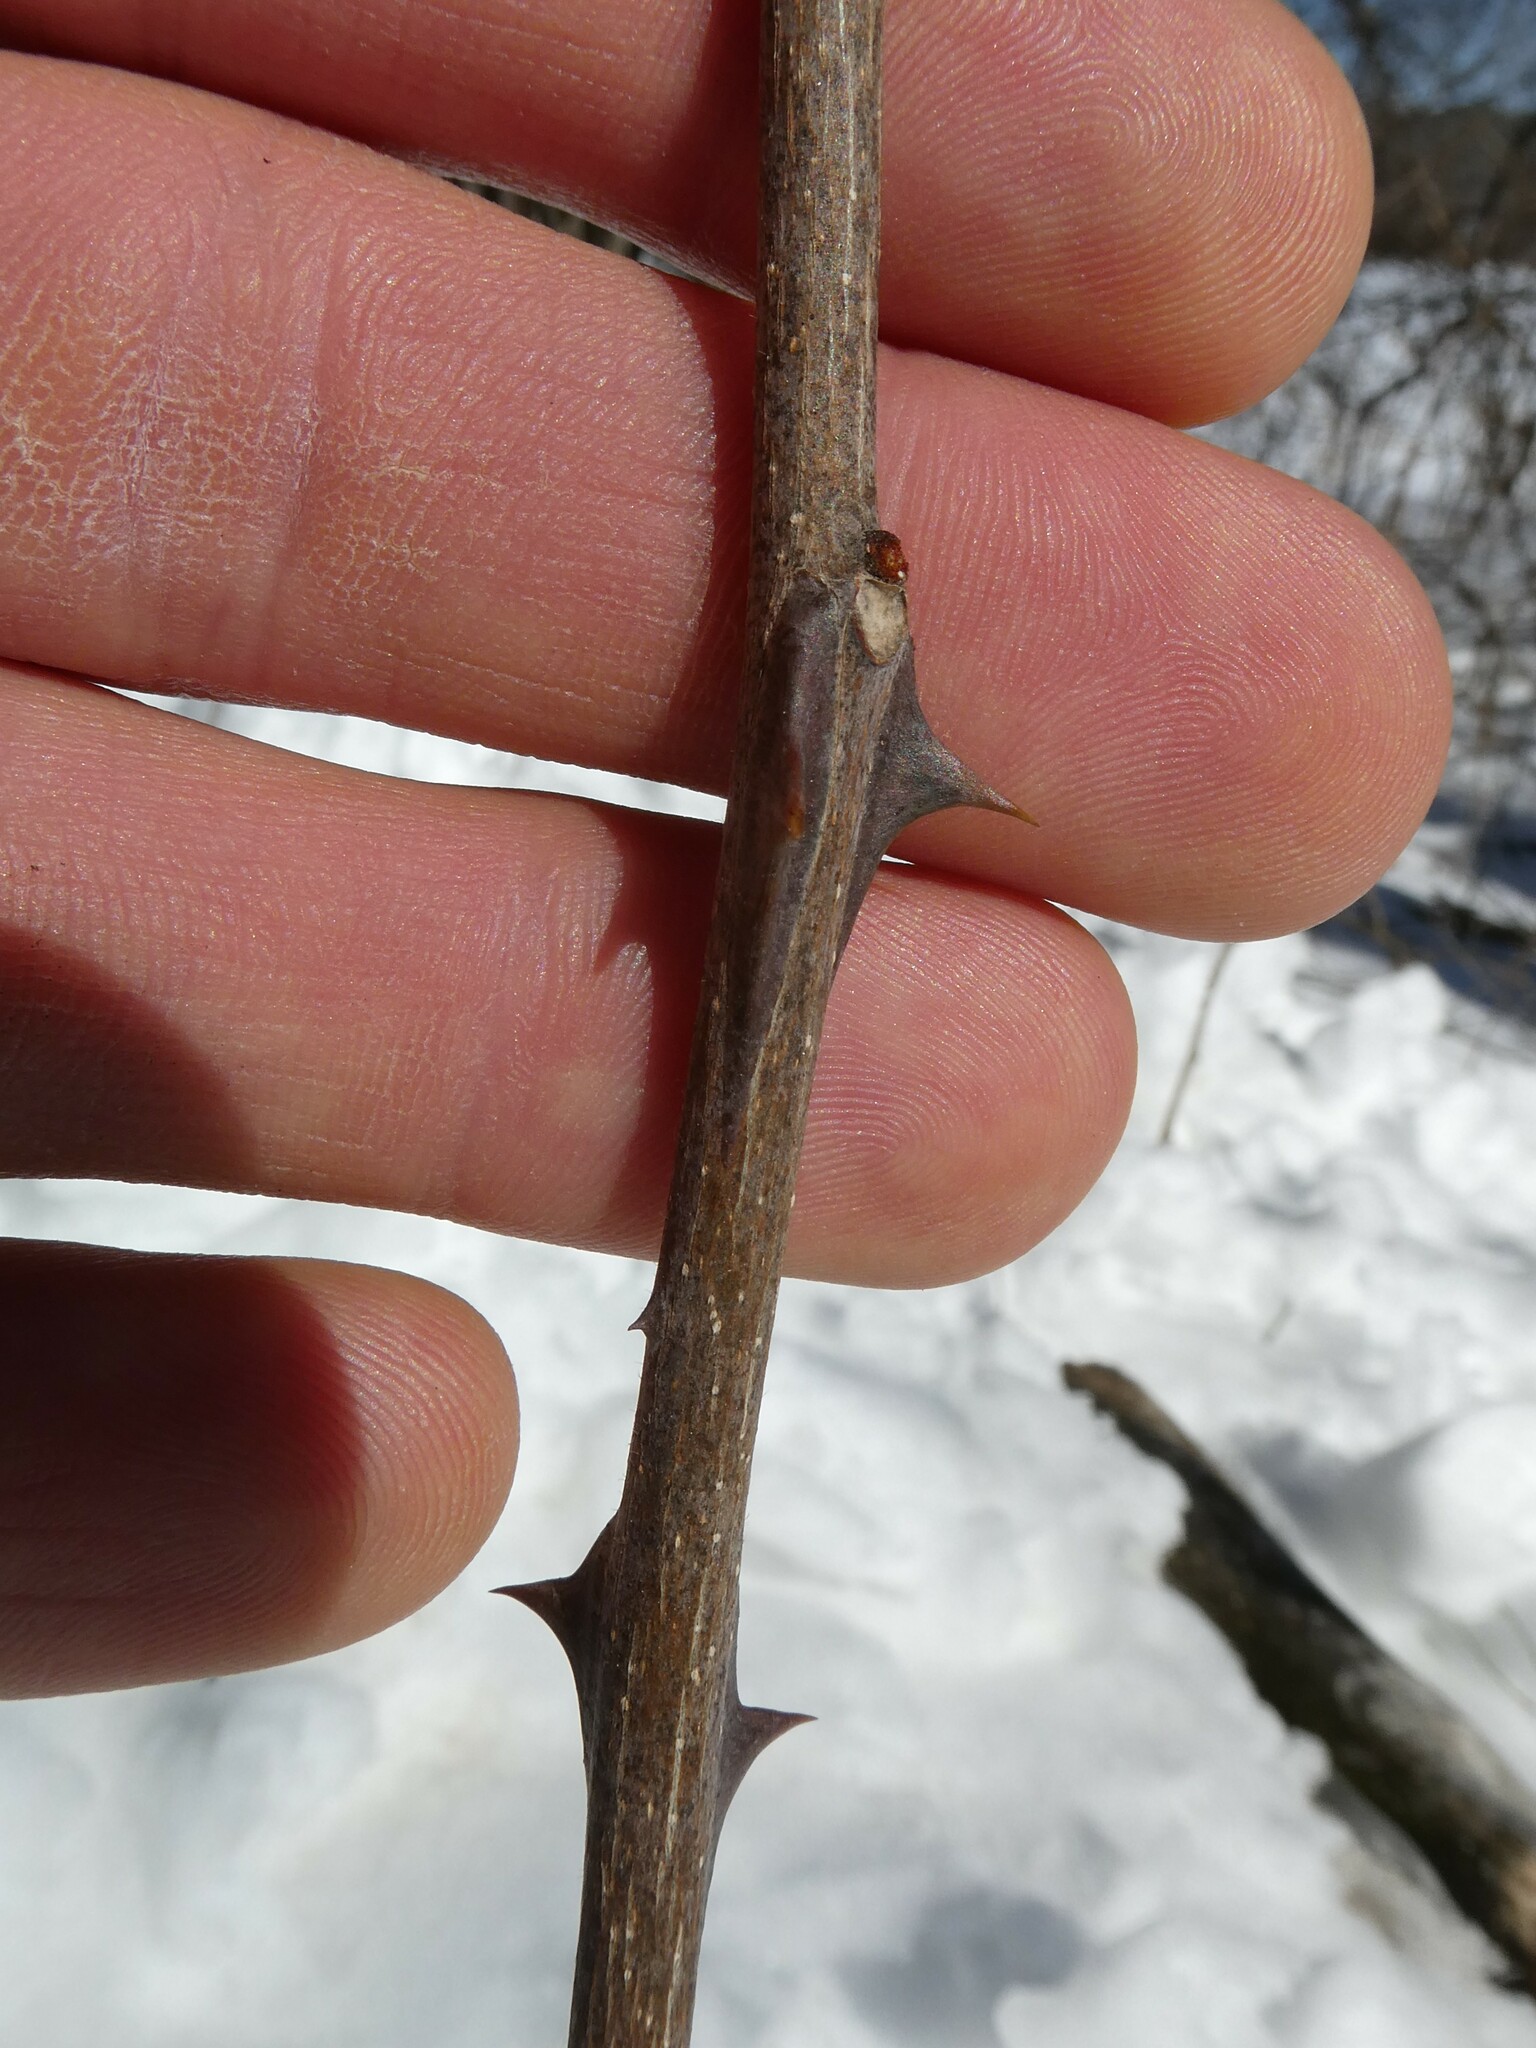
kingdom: Plantae
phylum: Tracheophyta
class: Magnoliopsida
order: Sapindales
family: Rutaceae
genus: Zanthoxylum
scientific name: Zanthoxylum americanum
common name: Northern prickly-ash
